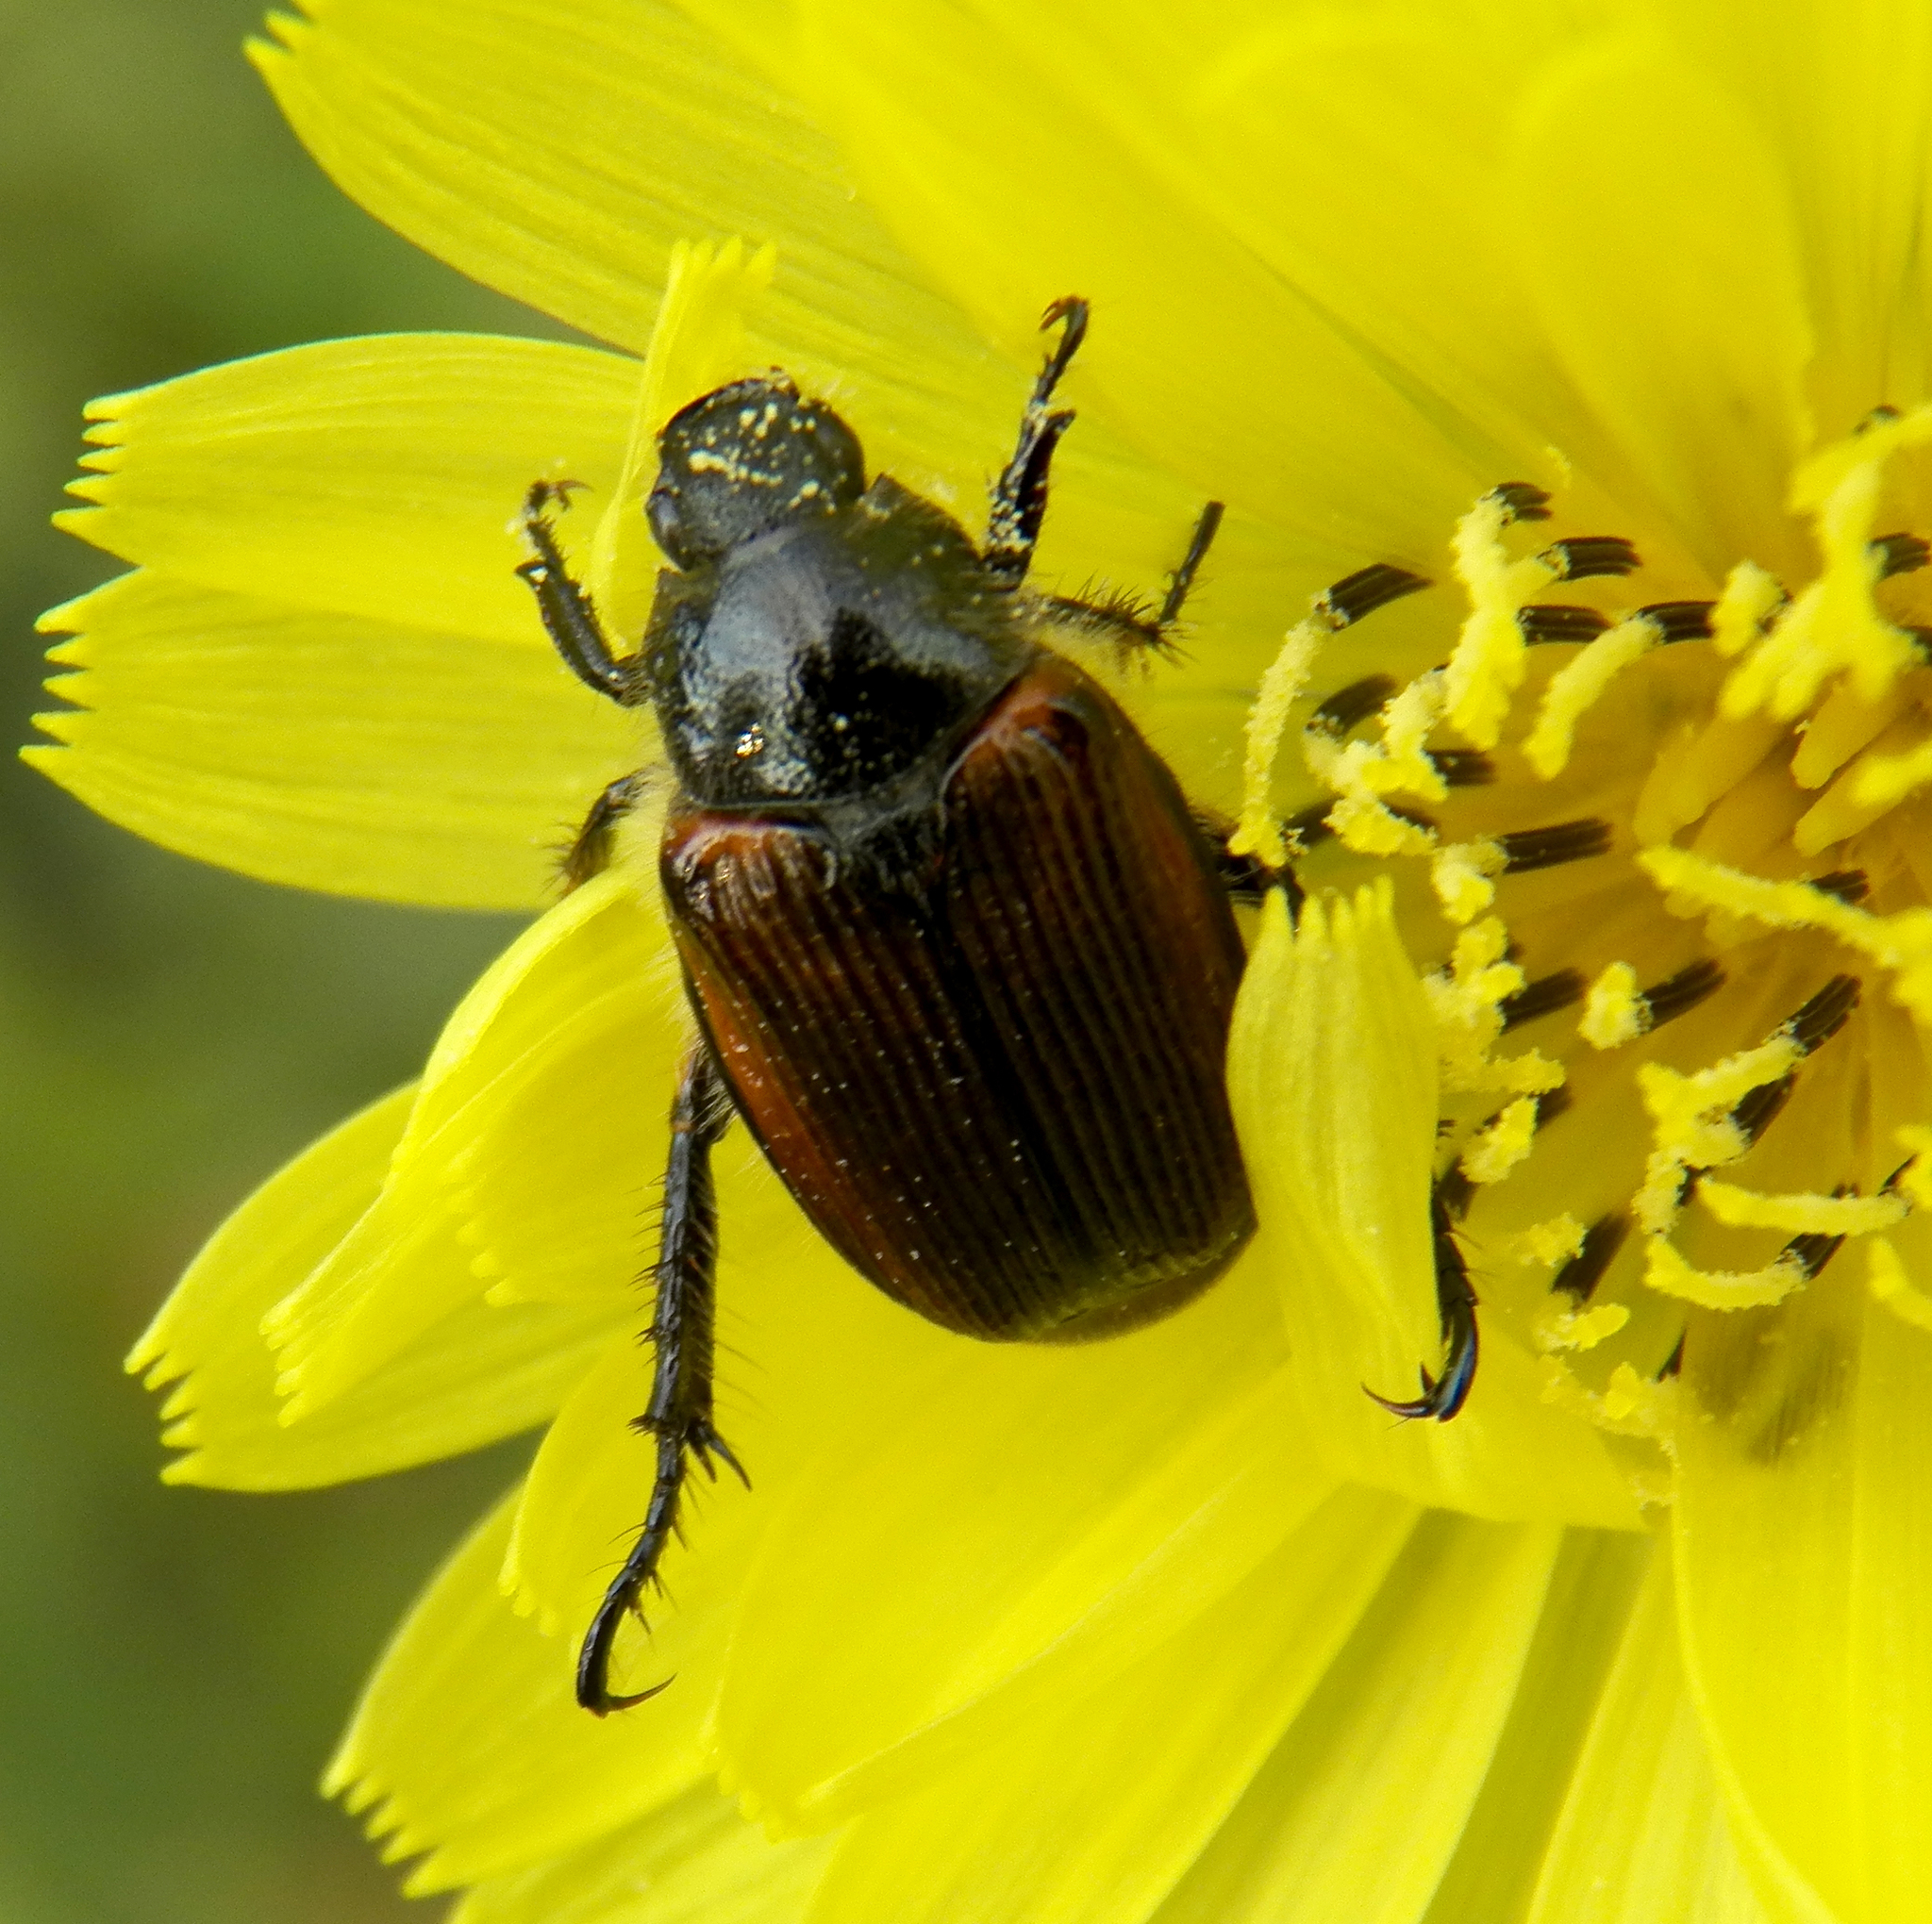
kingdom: Animalia
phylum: Arthropoda
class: Insecta
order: Coleoptera
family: Scarabaeidae
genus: Strigoderma
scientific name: Strigoderma arbicola
